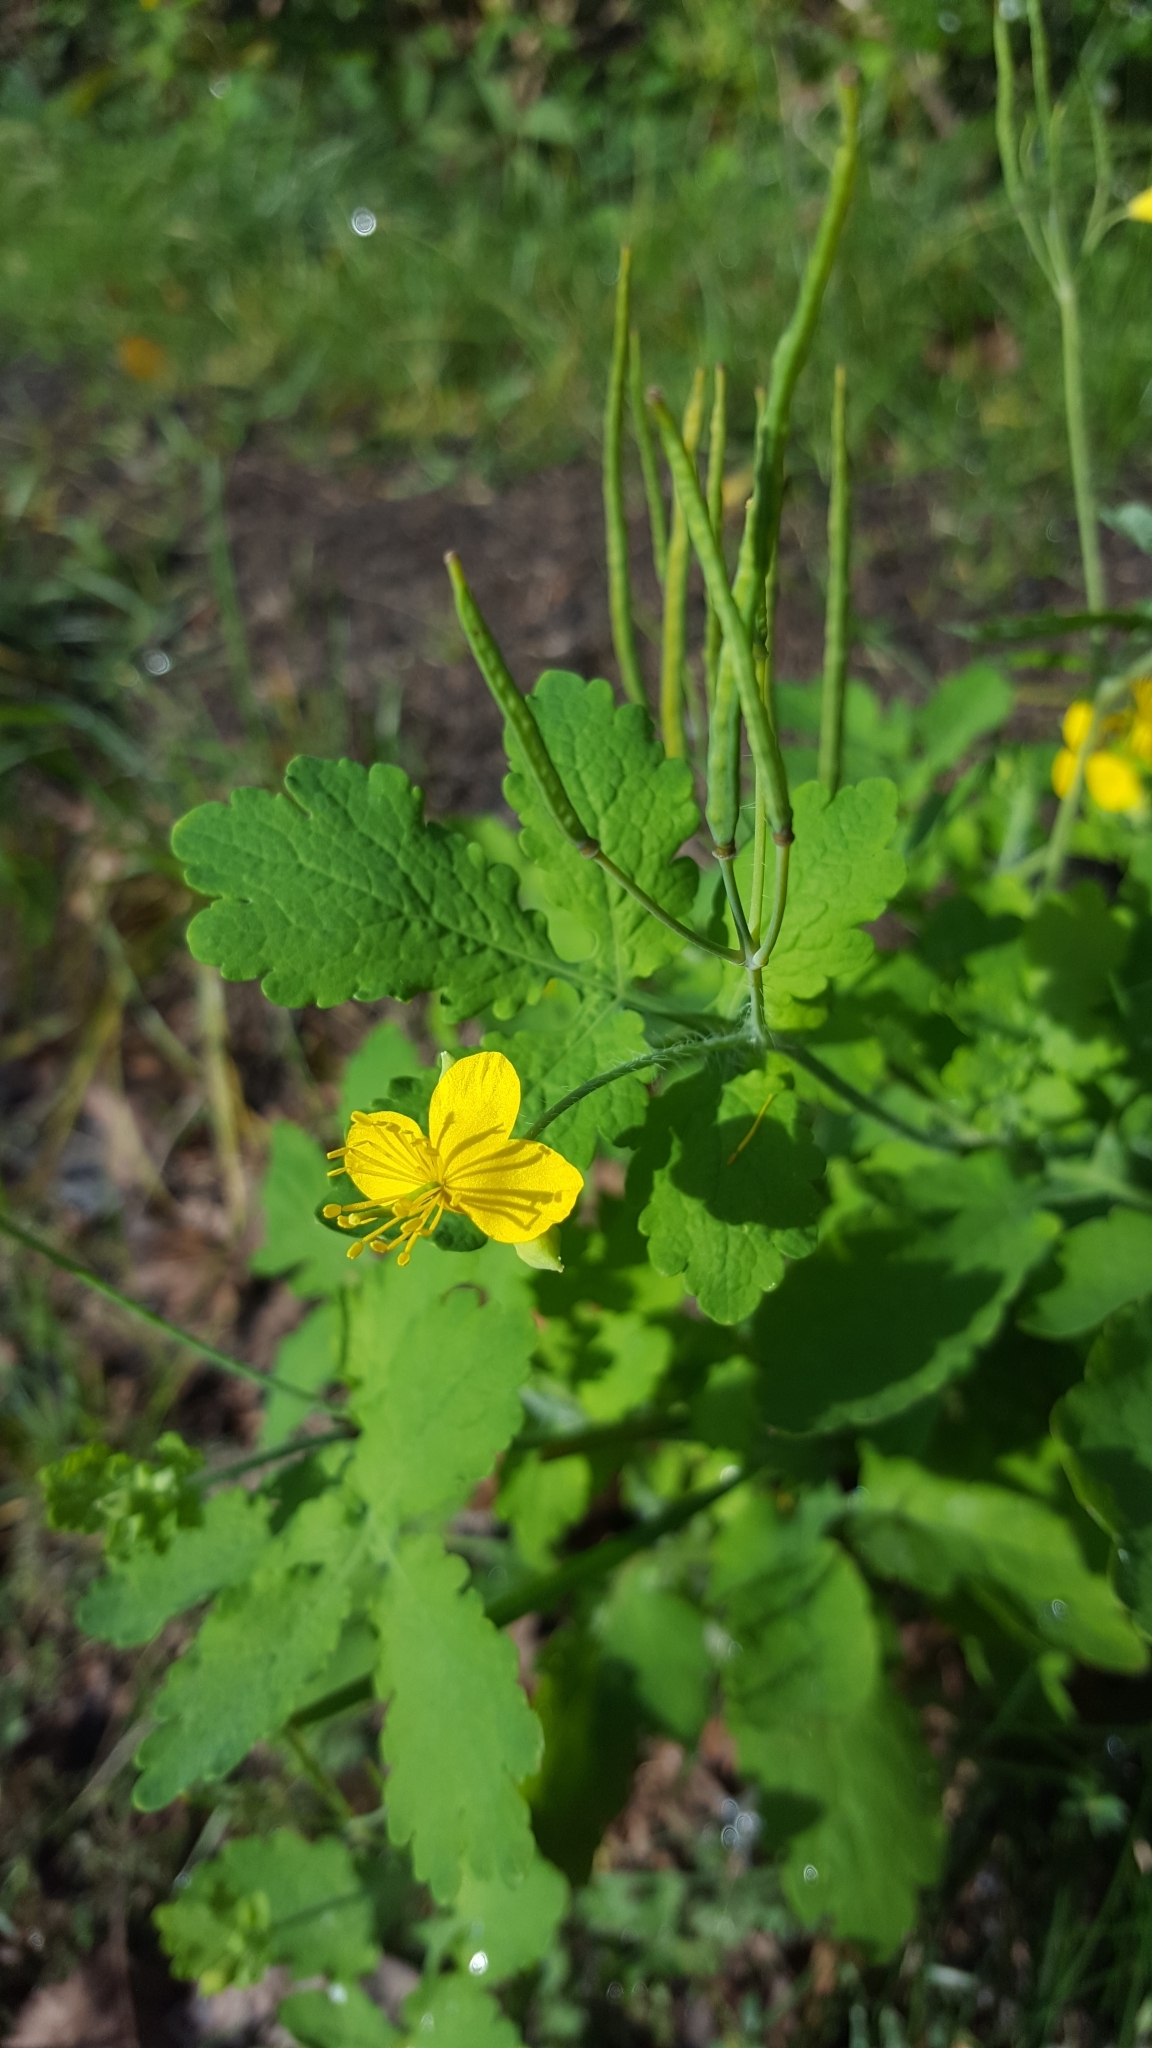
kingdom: Plantae
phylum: Tracheophyta
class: Magnoliopsida
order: Ranunculales
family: Papaveraceae
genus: Chelidonium
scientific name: Chelidonium majus
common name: Greater celandine
